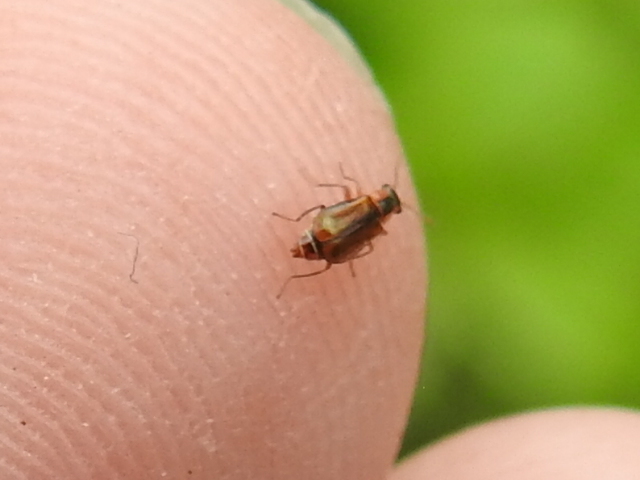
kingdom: Animalia
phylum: Arthropoda
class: Insecta
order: Coleoptera
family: Malachiidae
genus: Attalus
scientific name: Attalus
